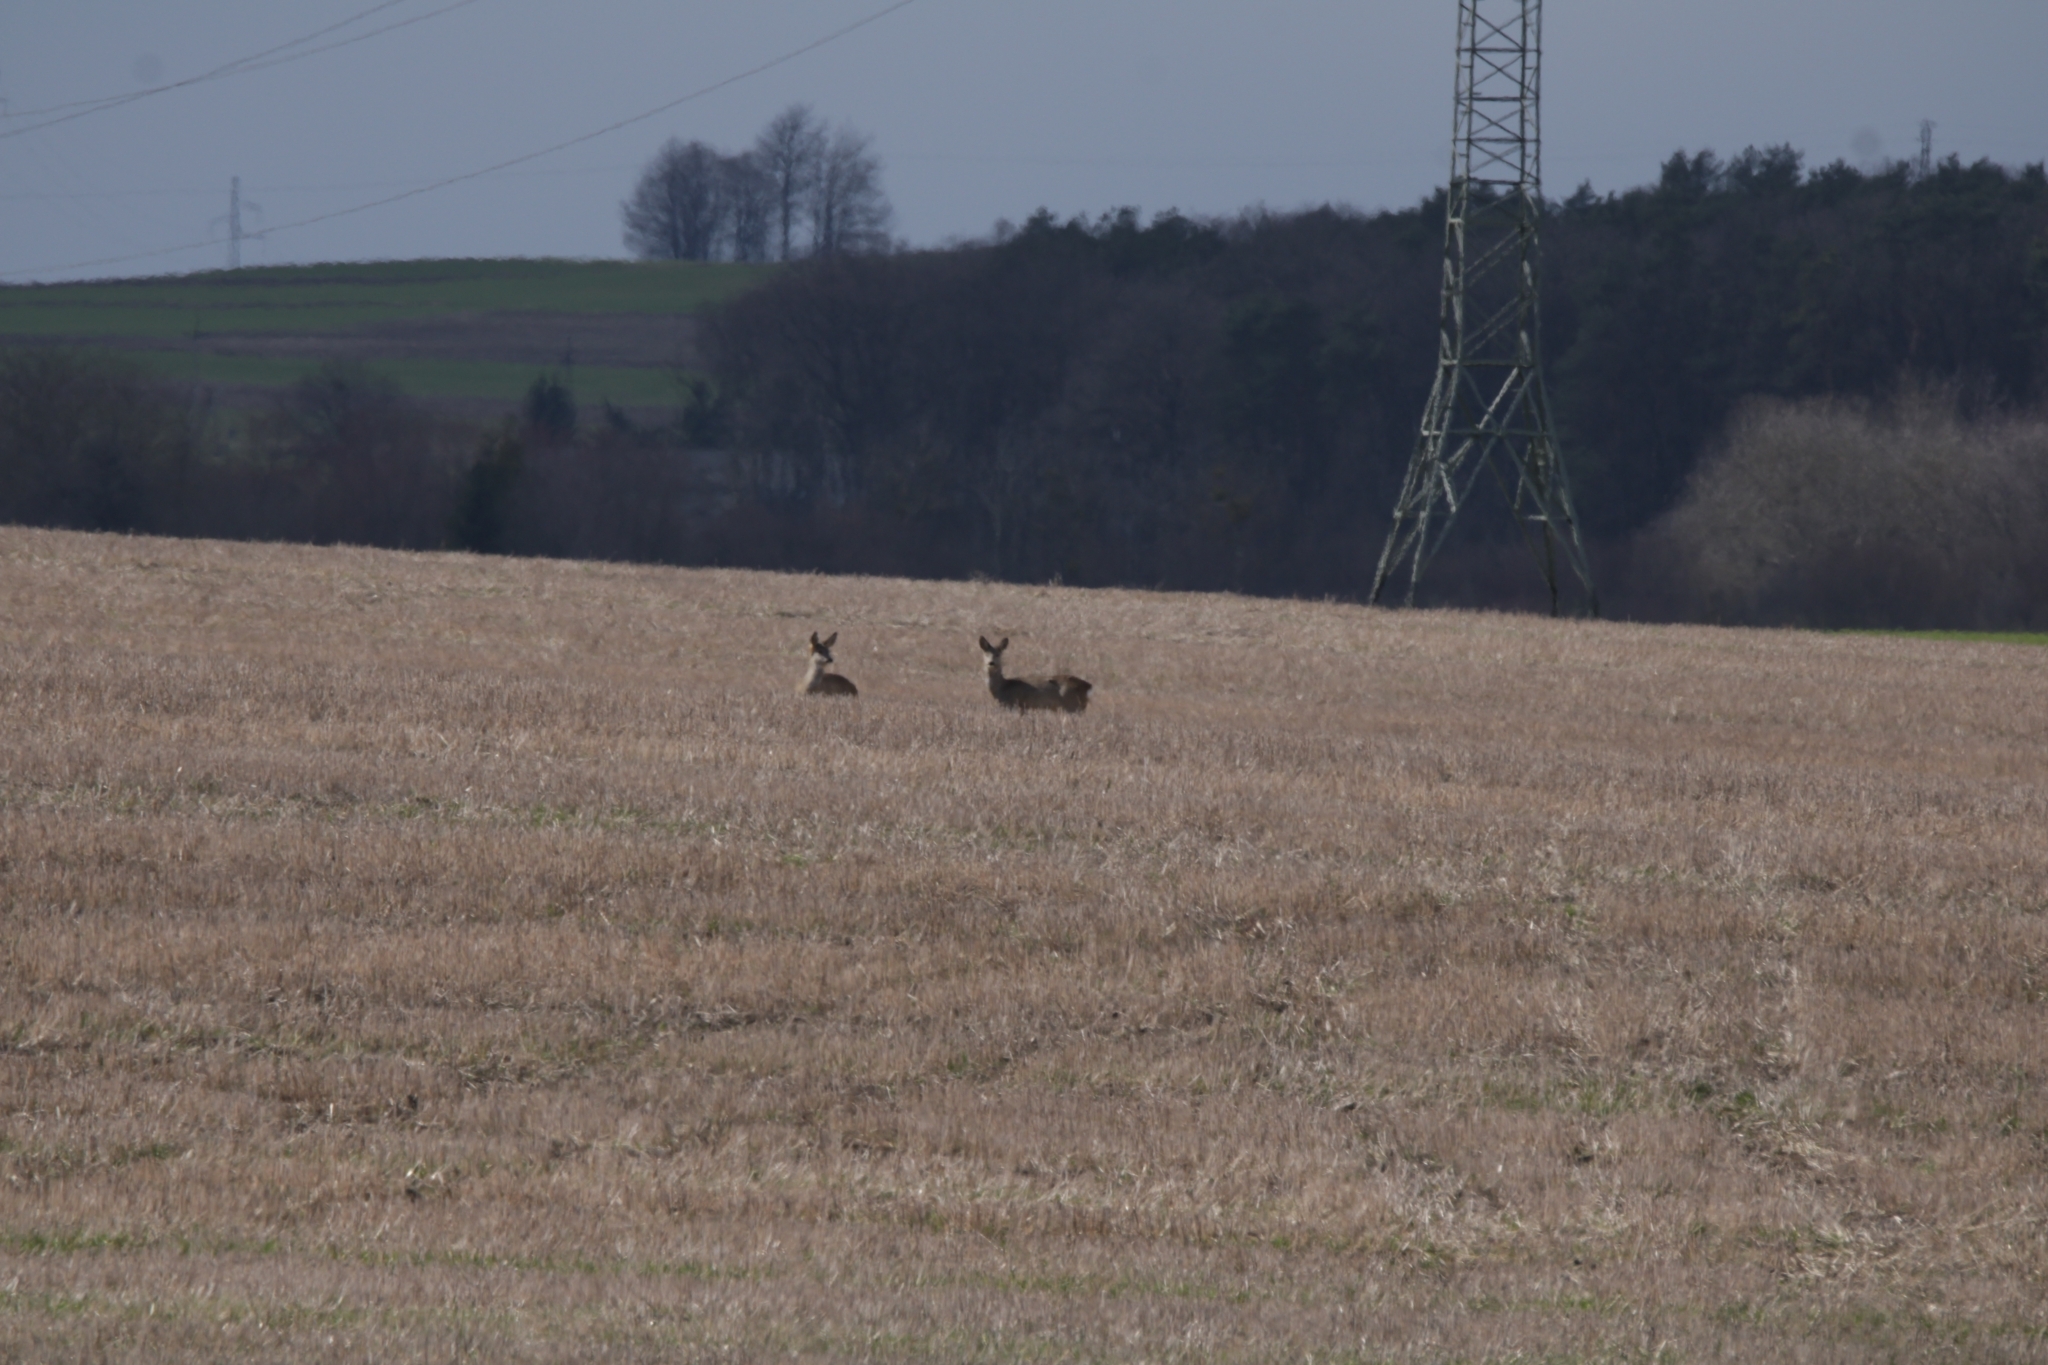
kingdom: Animalia
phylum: Chordata
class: Mammalia
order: Artiodactyla
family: Cervidae
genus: Capreolus
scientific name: Capreolus capreolus
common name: Western roe deer
